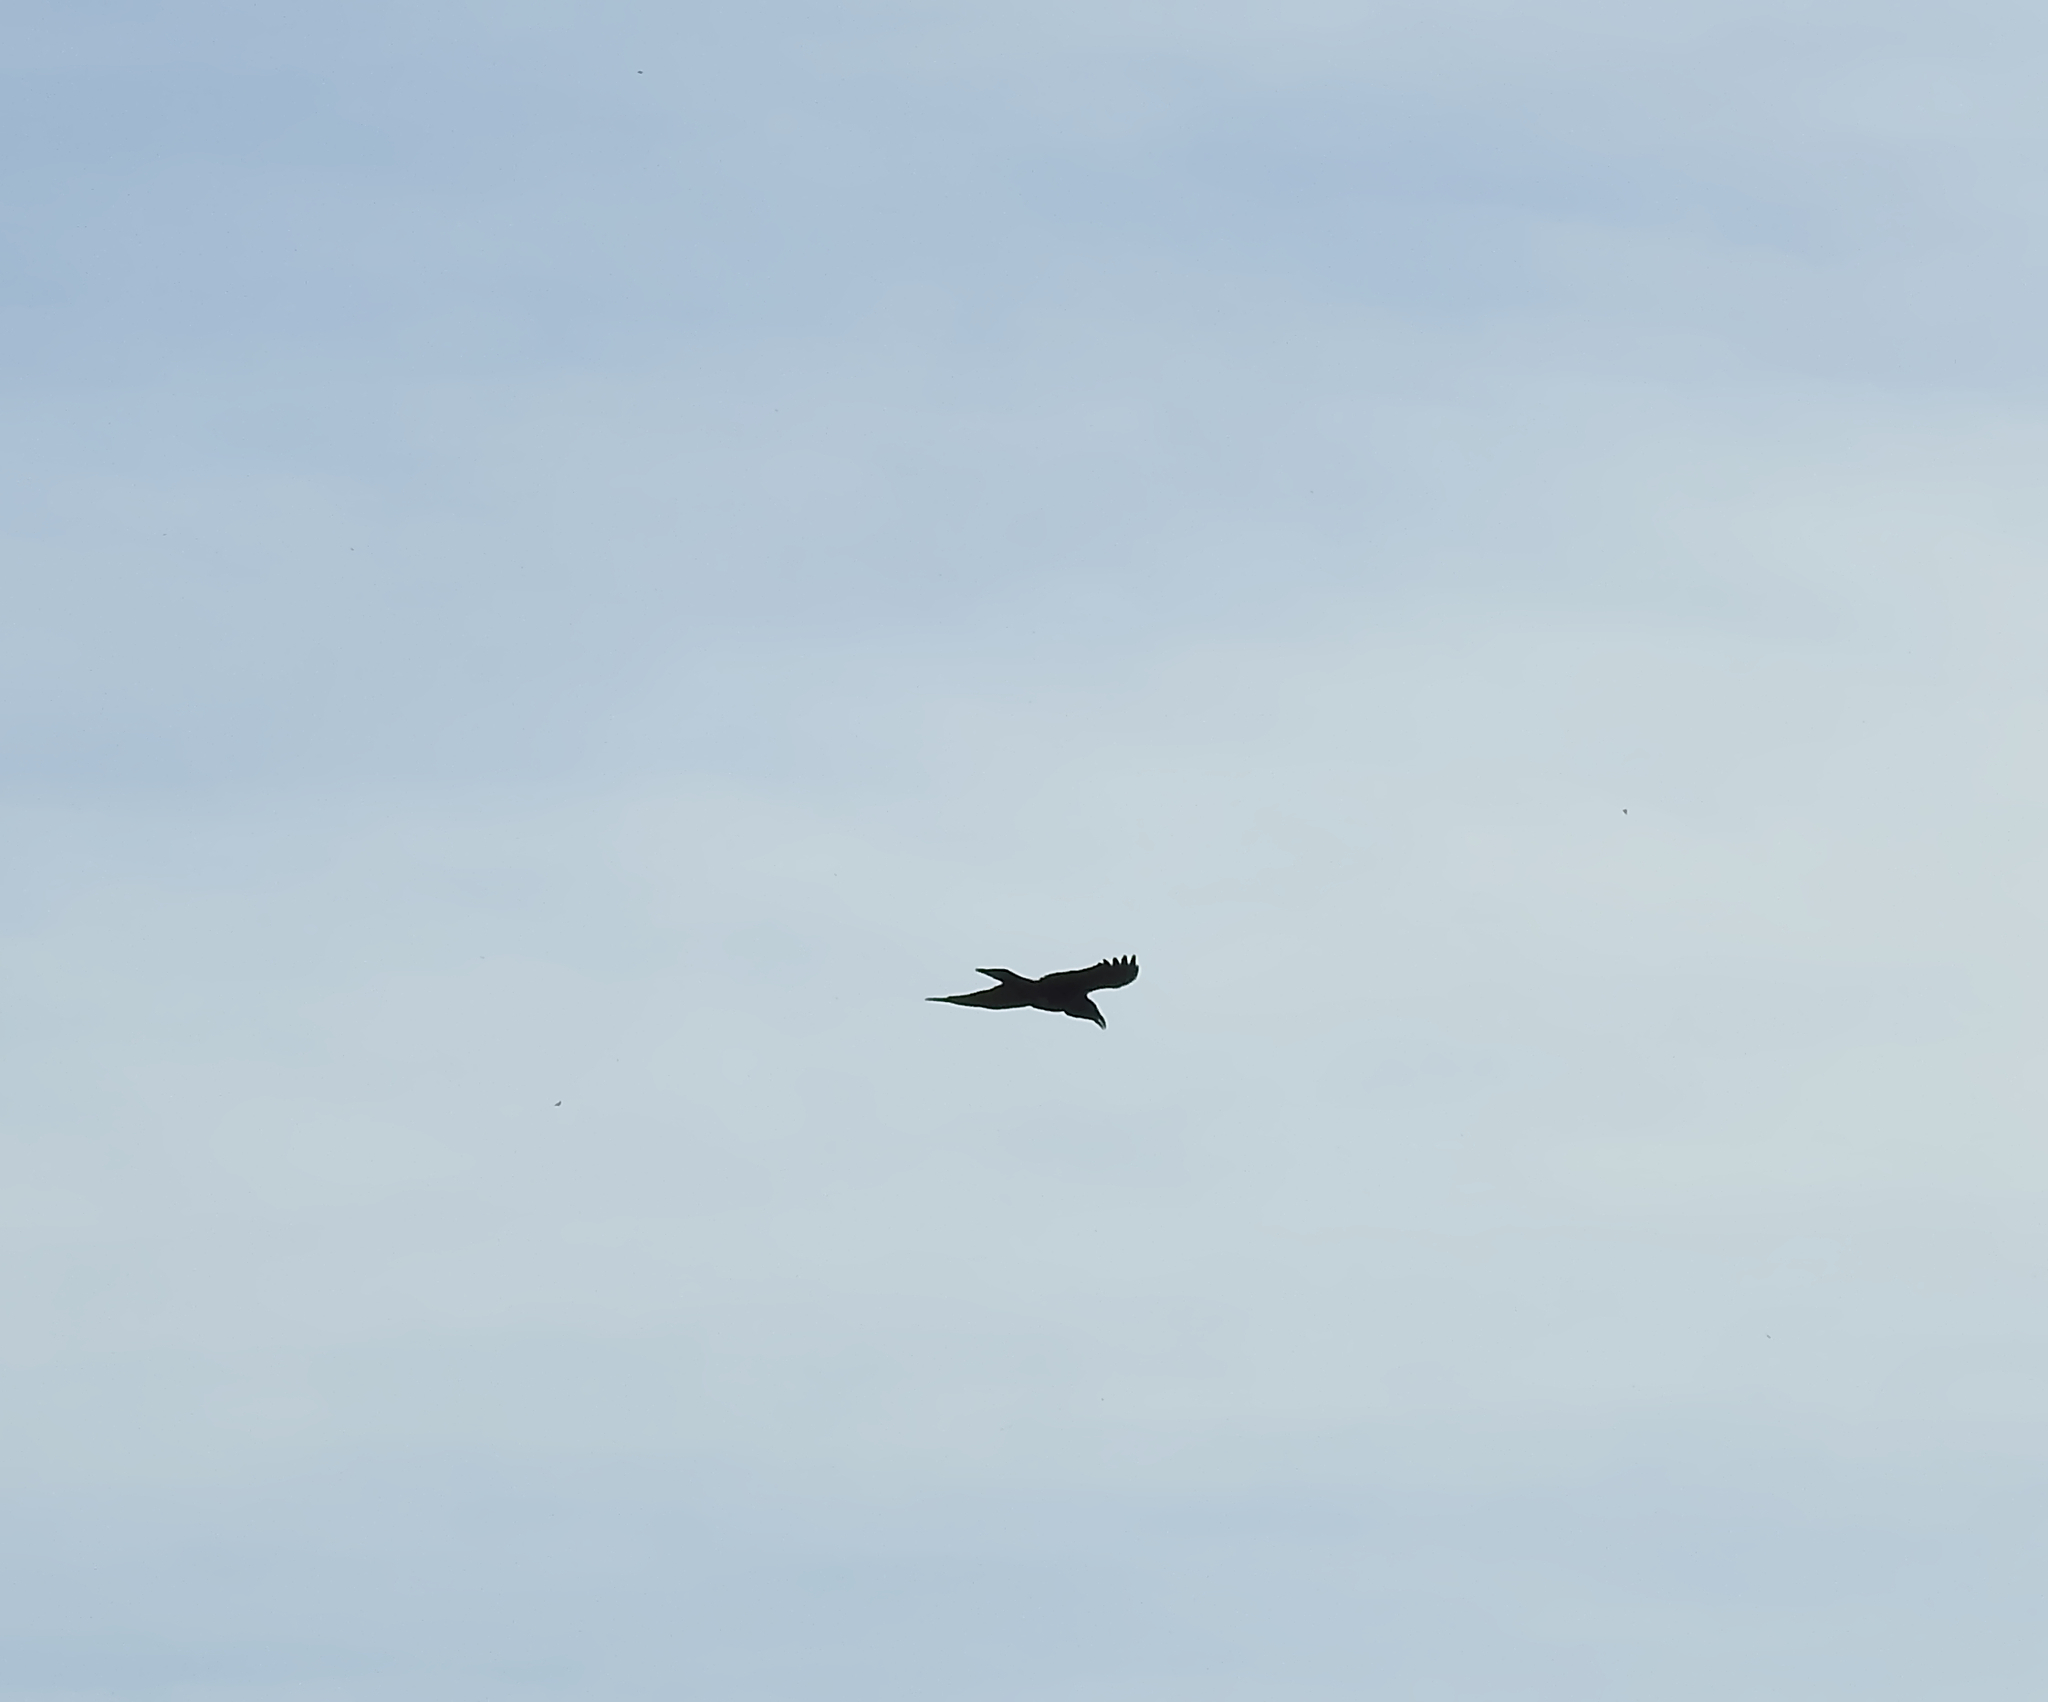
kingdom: Animalia
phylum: Chordata
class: Aves
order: Passeriformes
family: Corvidae
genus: Corvus
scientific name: Corvus corax
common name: Common raven
